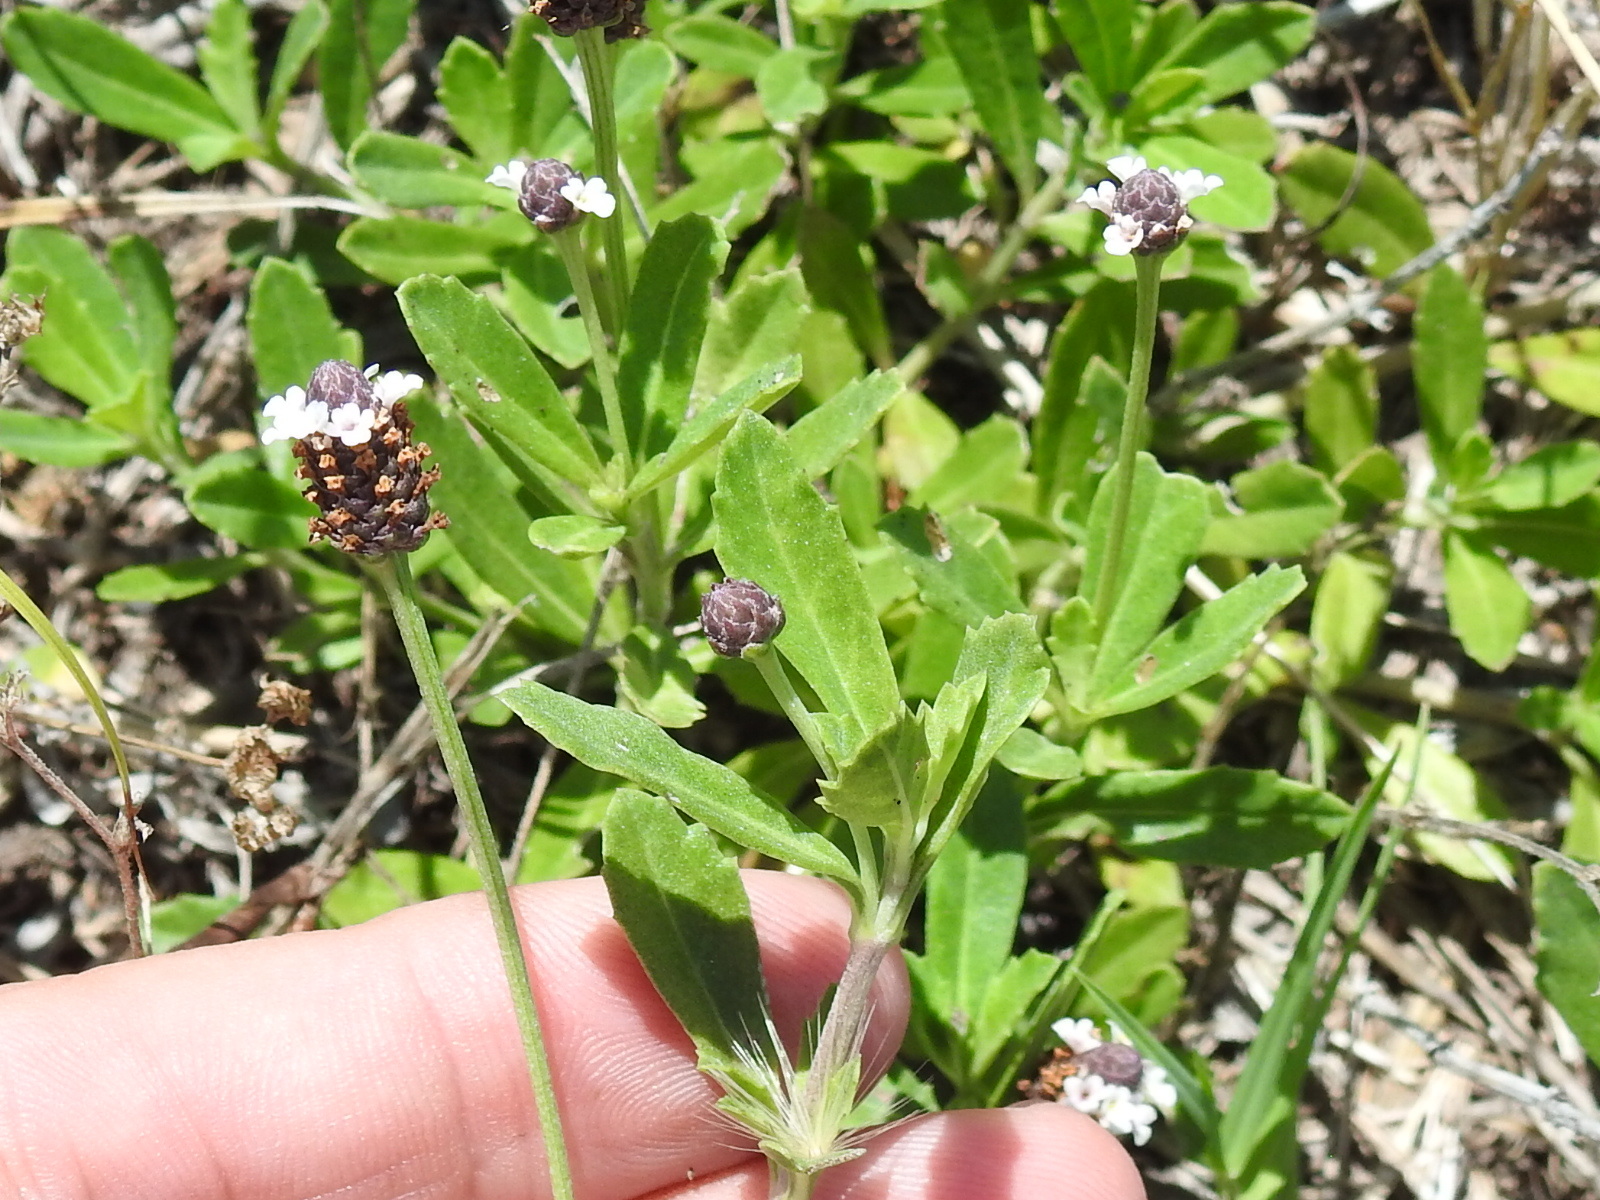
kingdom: Plantae
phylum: Tracheophyta
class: Magnoliopsida
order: Lamiales
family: Verbenaceae
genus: Phyla
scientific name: Phyla nodiflora
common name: Frogfruit
